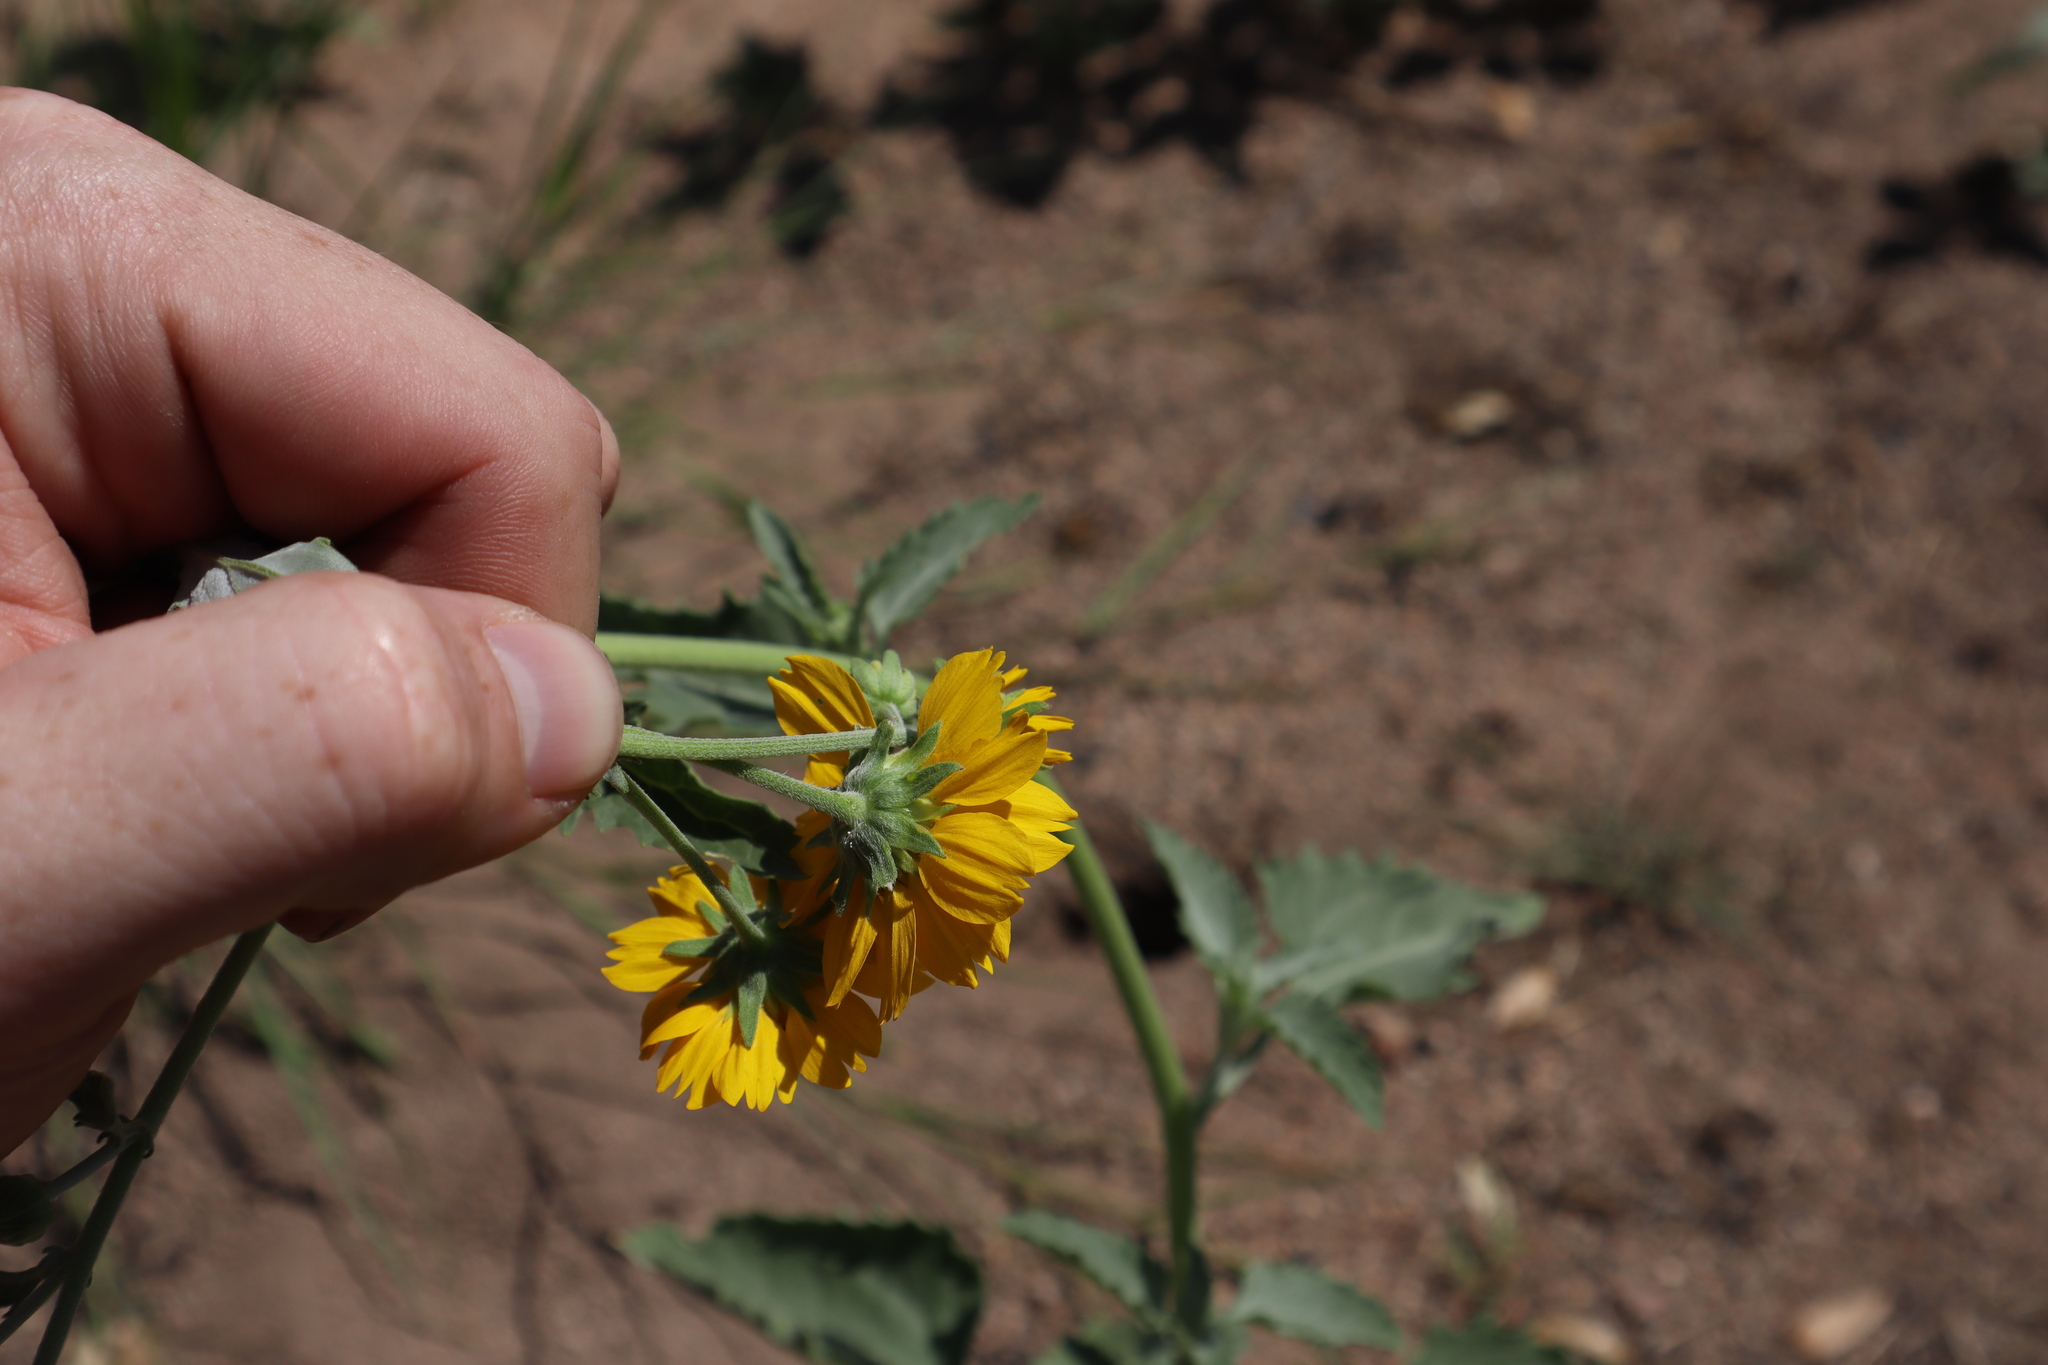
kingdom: Plantae
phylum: Tracheophyta
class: Magnoliopsida
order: Asterales
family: Asteraceae
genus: Verbesina
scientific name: Verbesina encelioides
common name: Golden crownbeard
